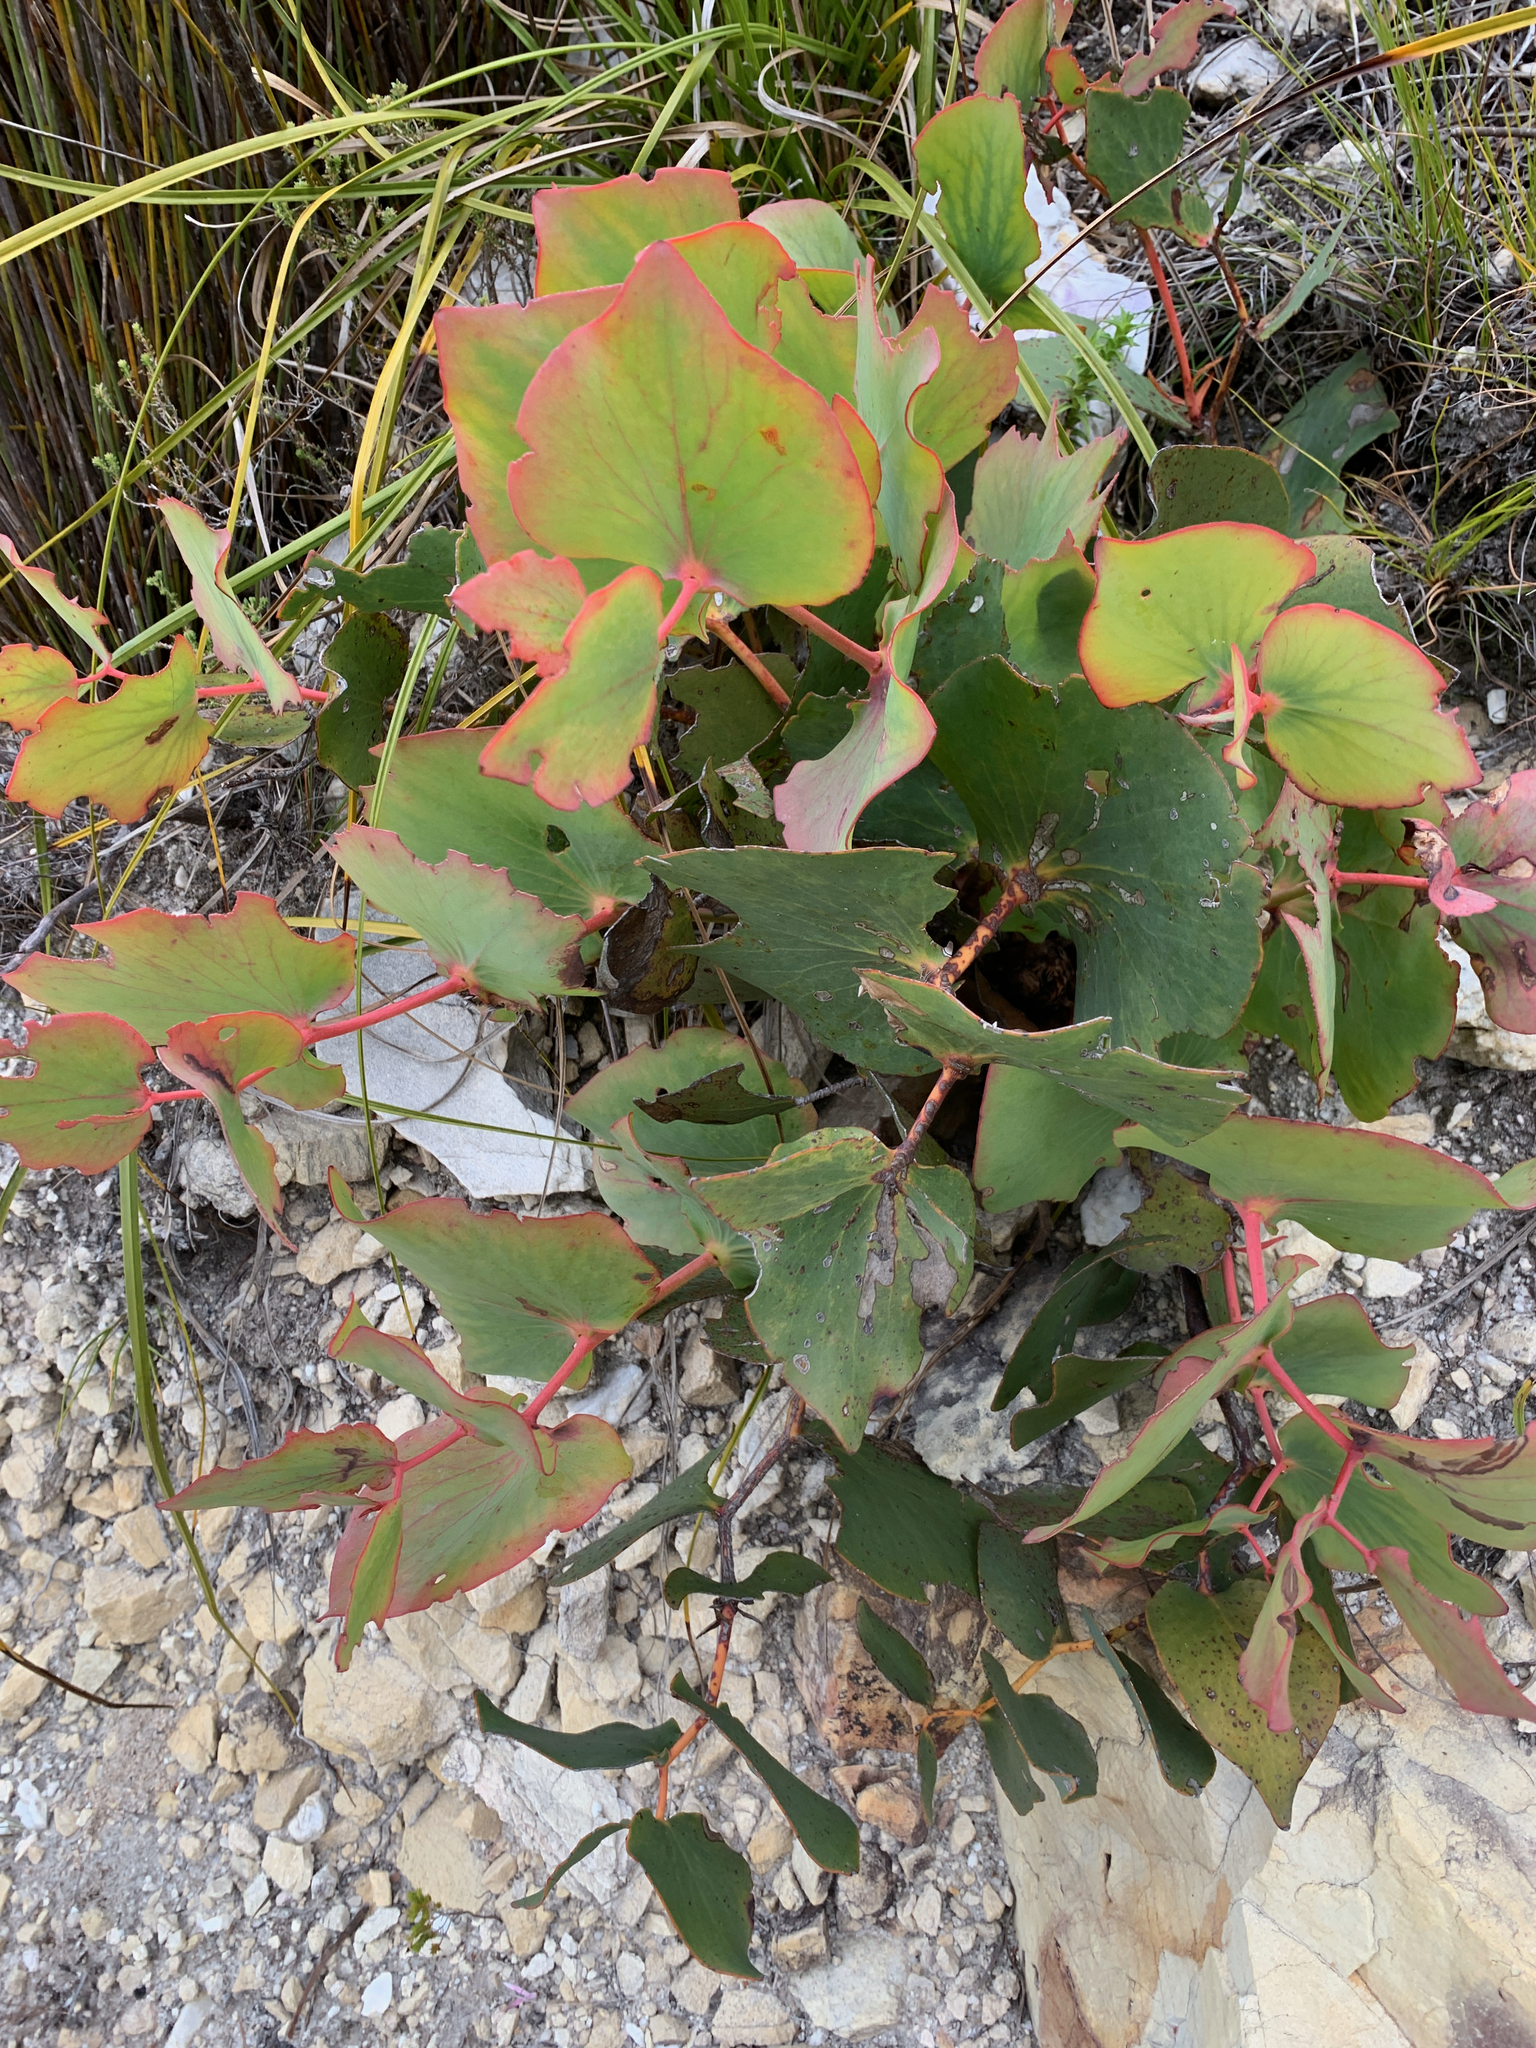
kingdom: Plantae
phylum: Tracheophyta
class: Magnoliopsida
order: Proteales
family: Proteaceae
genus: Protea
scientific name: Protea cordata
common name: Heart-leaf sugarbush
